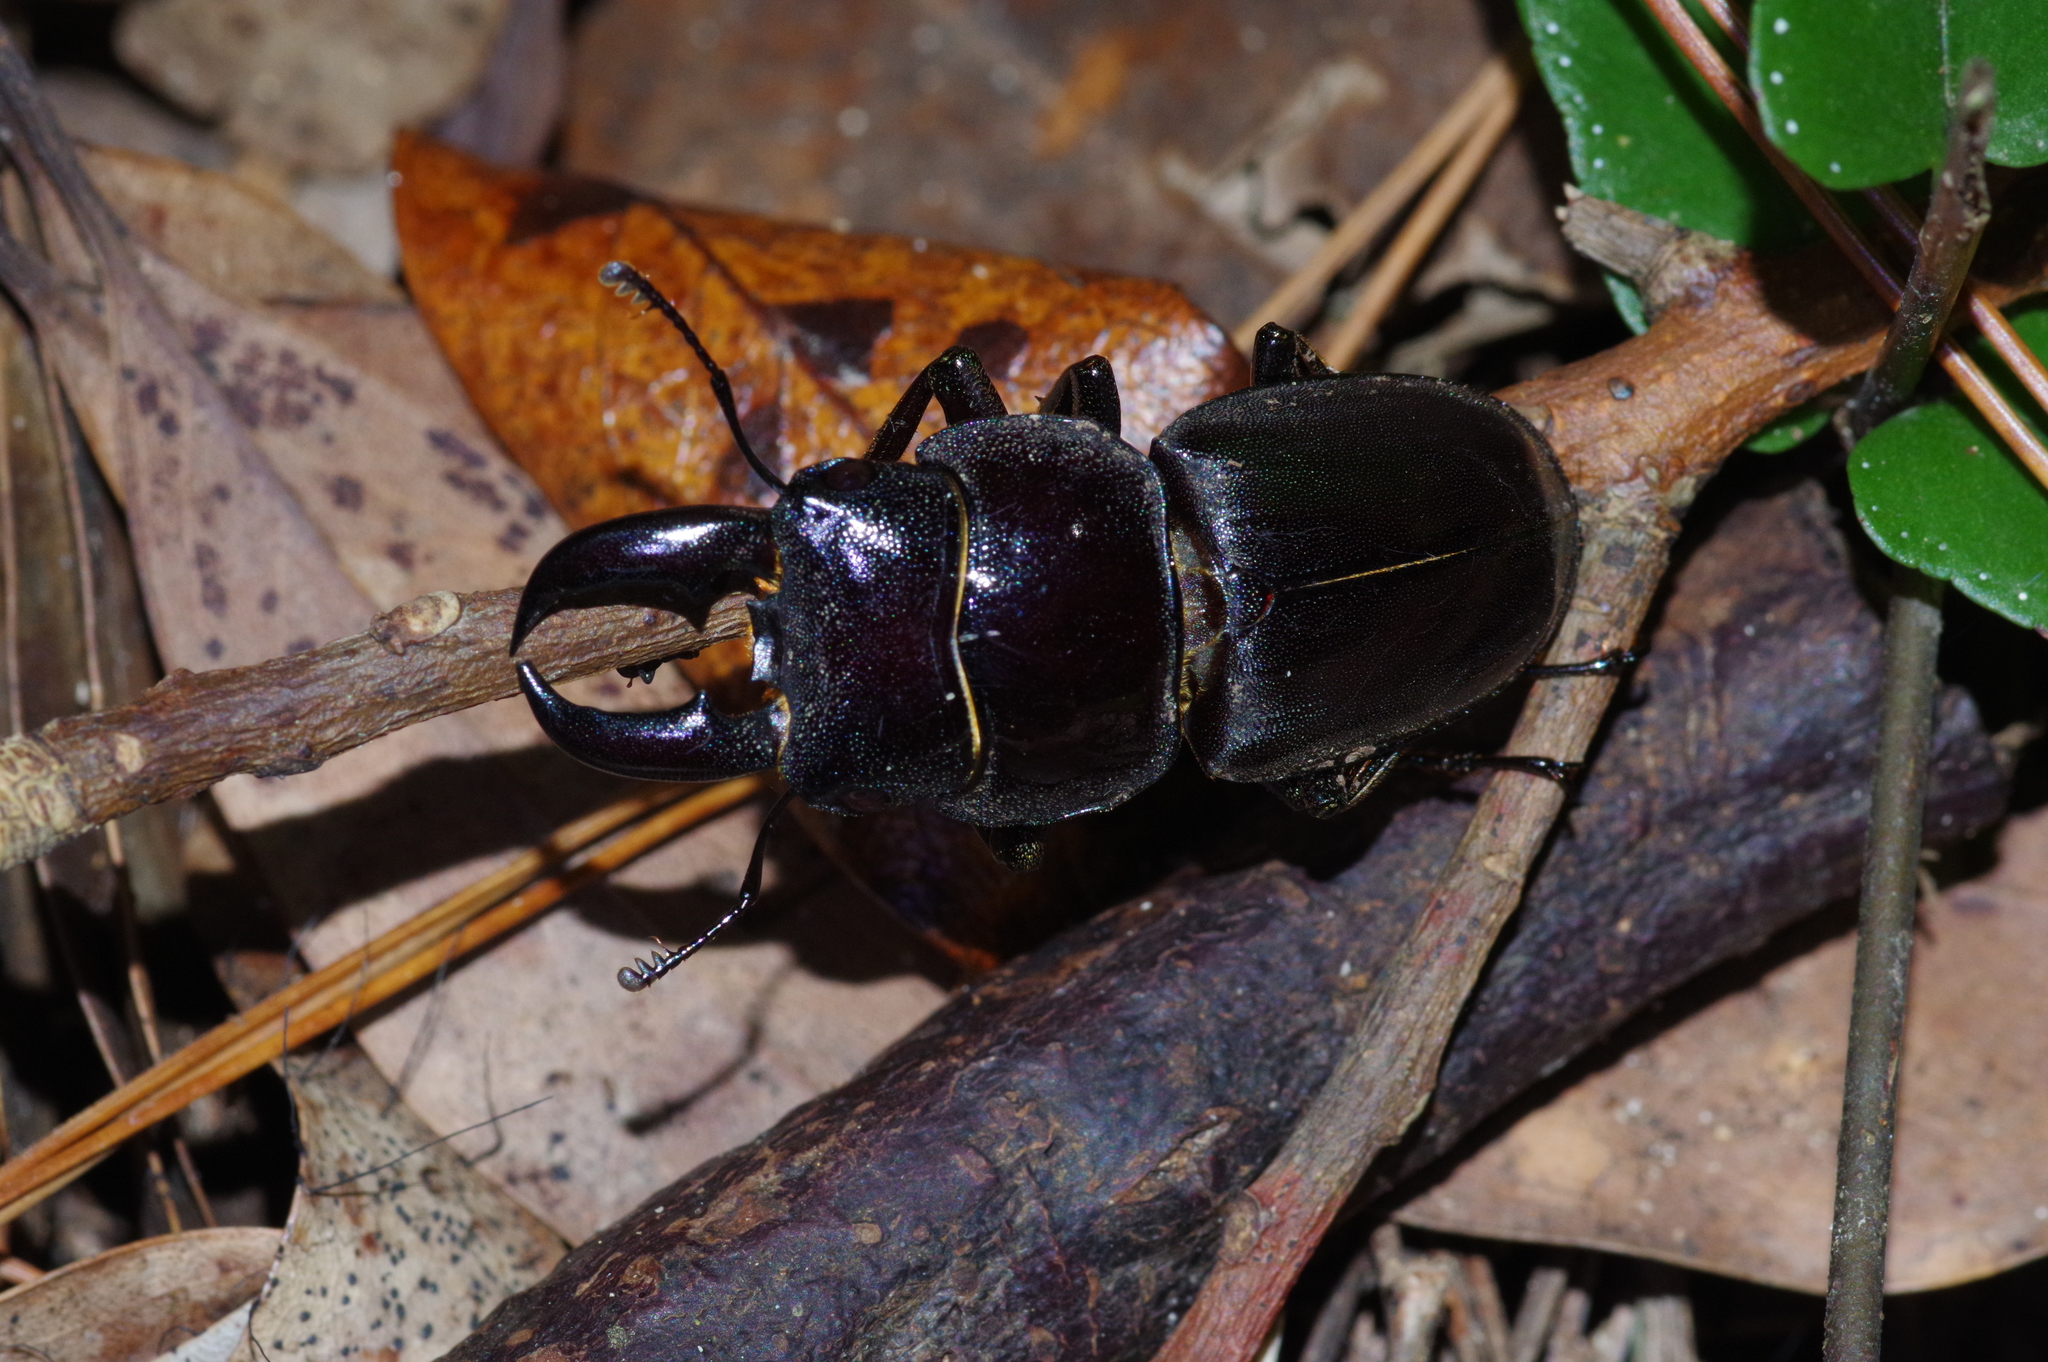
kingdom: Animalia
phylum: Arthropoda
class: Insecta
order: Coleoptera
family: Lucanidae
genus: Serrognathus
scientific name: Serrognathus titanus
